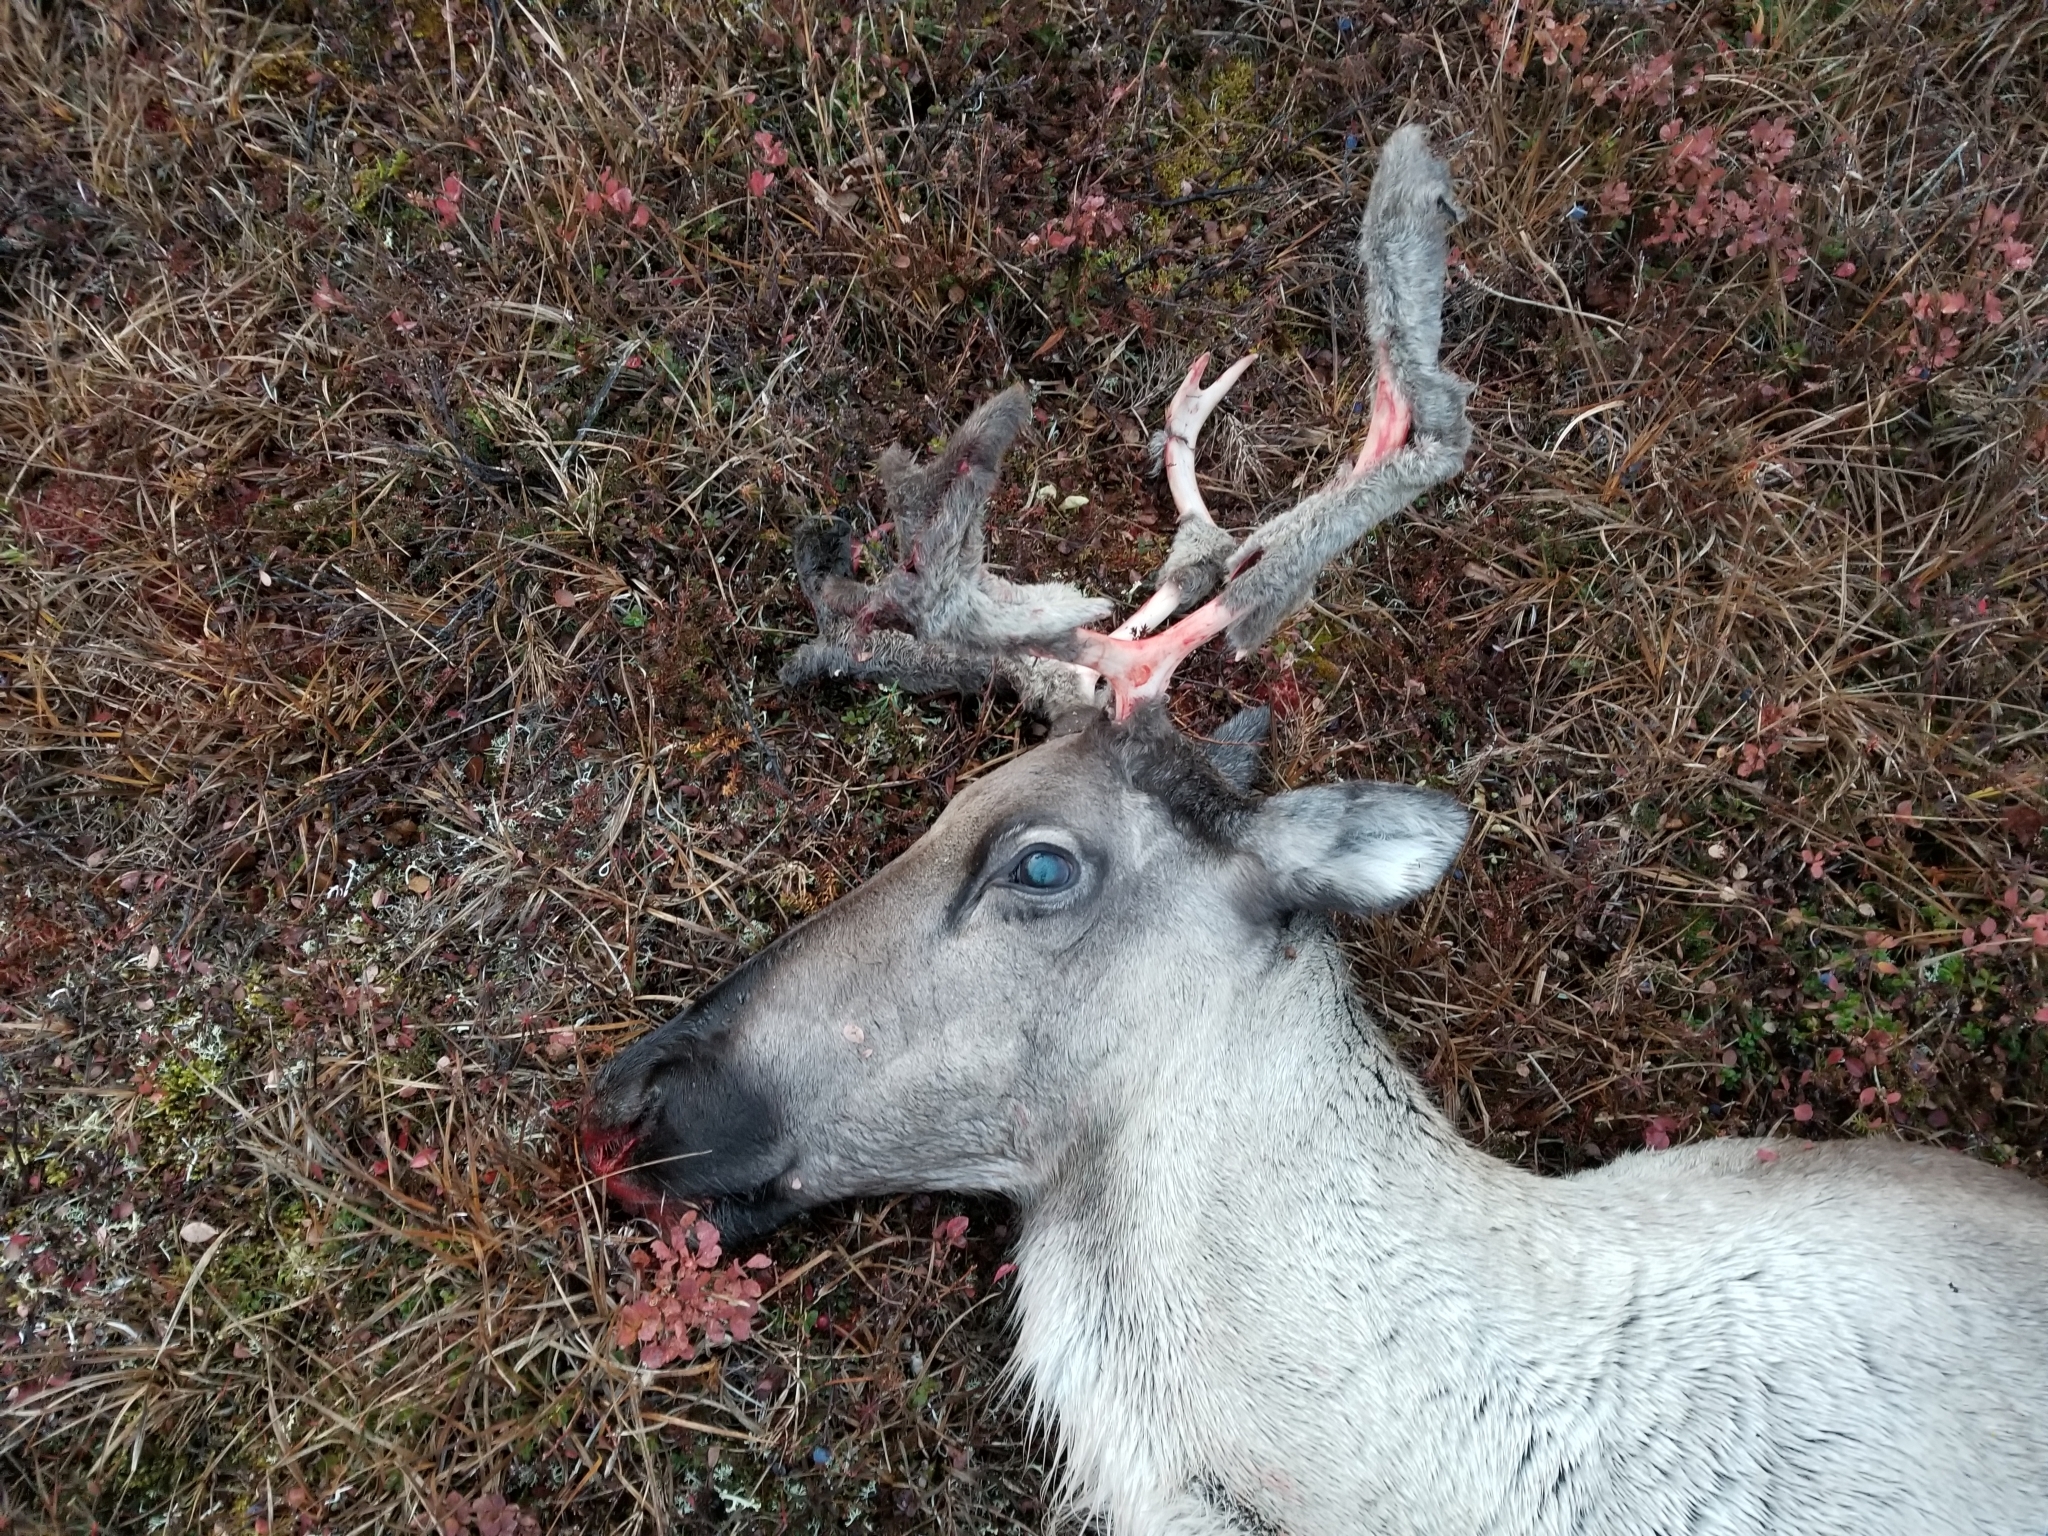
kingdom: Animalia
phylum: Chordata
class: Mammalia
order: Artiodactyla
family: Cervidae
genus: Rangifer
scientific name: Rangifer tarandus
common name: Reindeer
